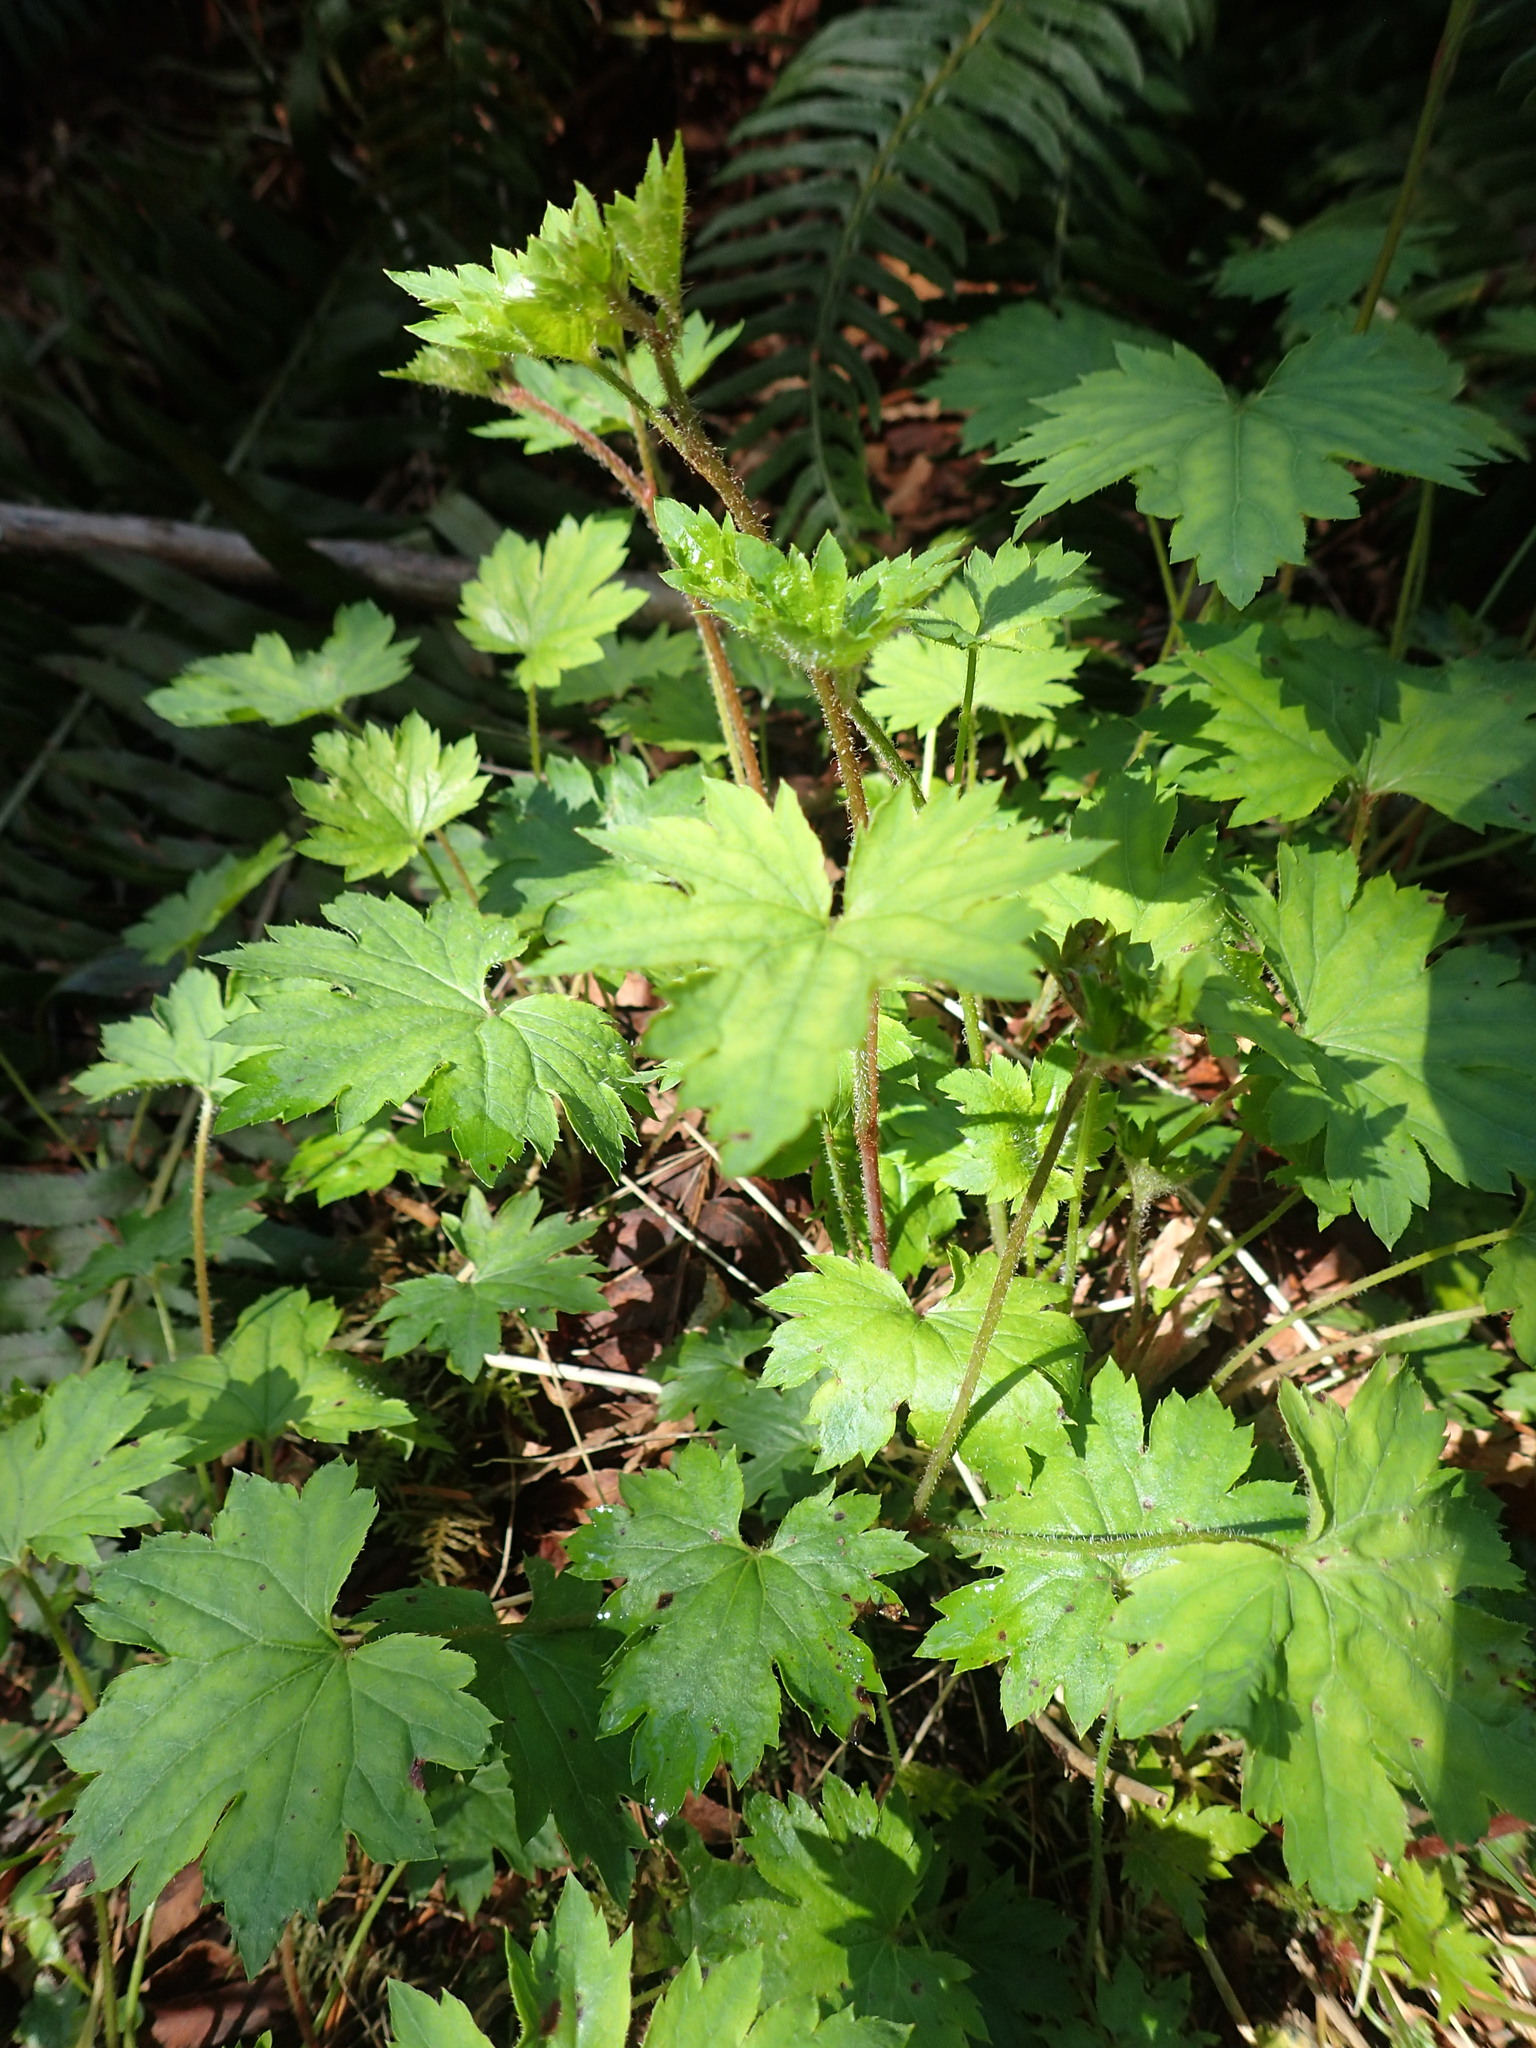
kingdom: Plantae
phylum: Tracheophyta
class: Magnoliopsida
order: Saxifragales
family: Saxifragaceae
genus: Boykinia
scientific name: Boykinia occidentalis
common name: Coast boykinia
